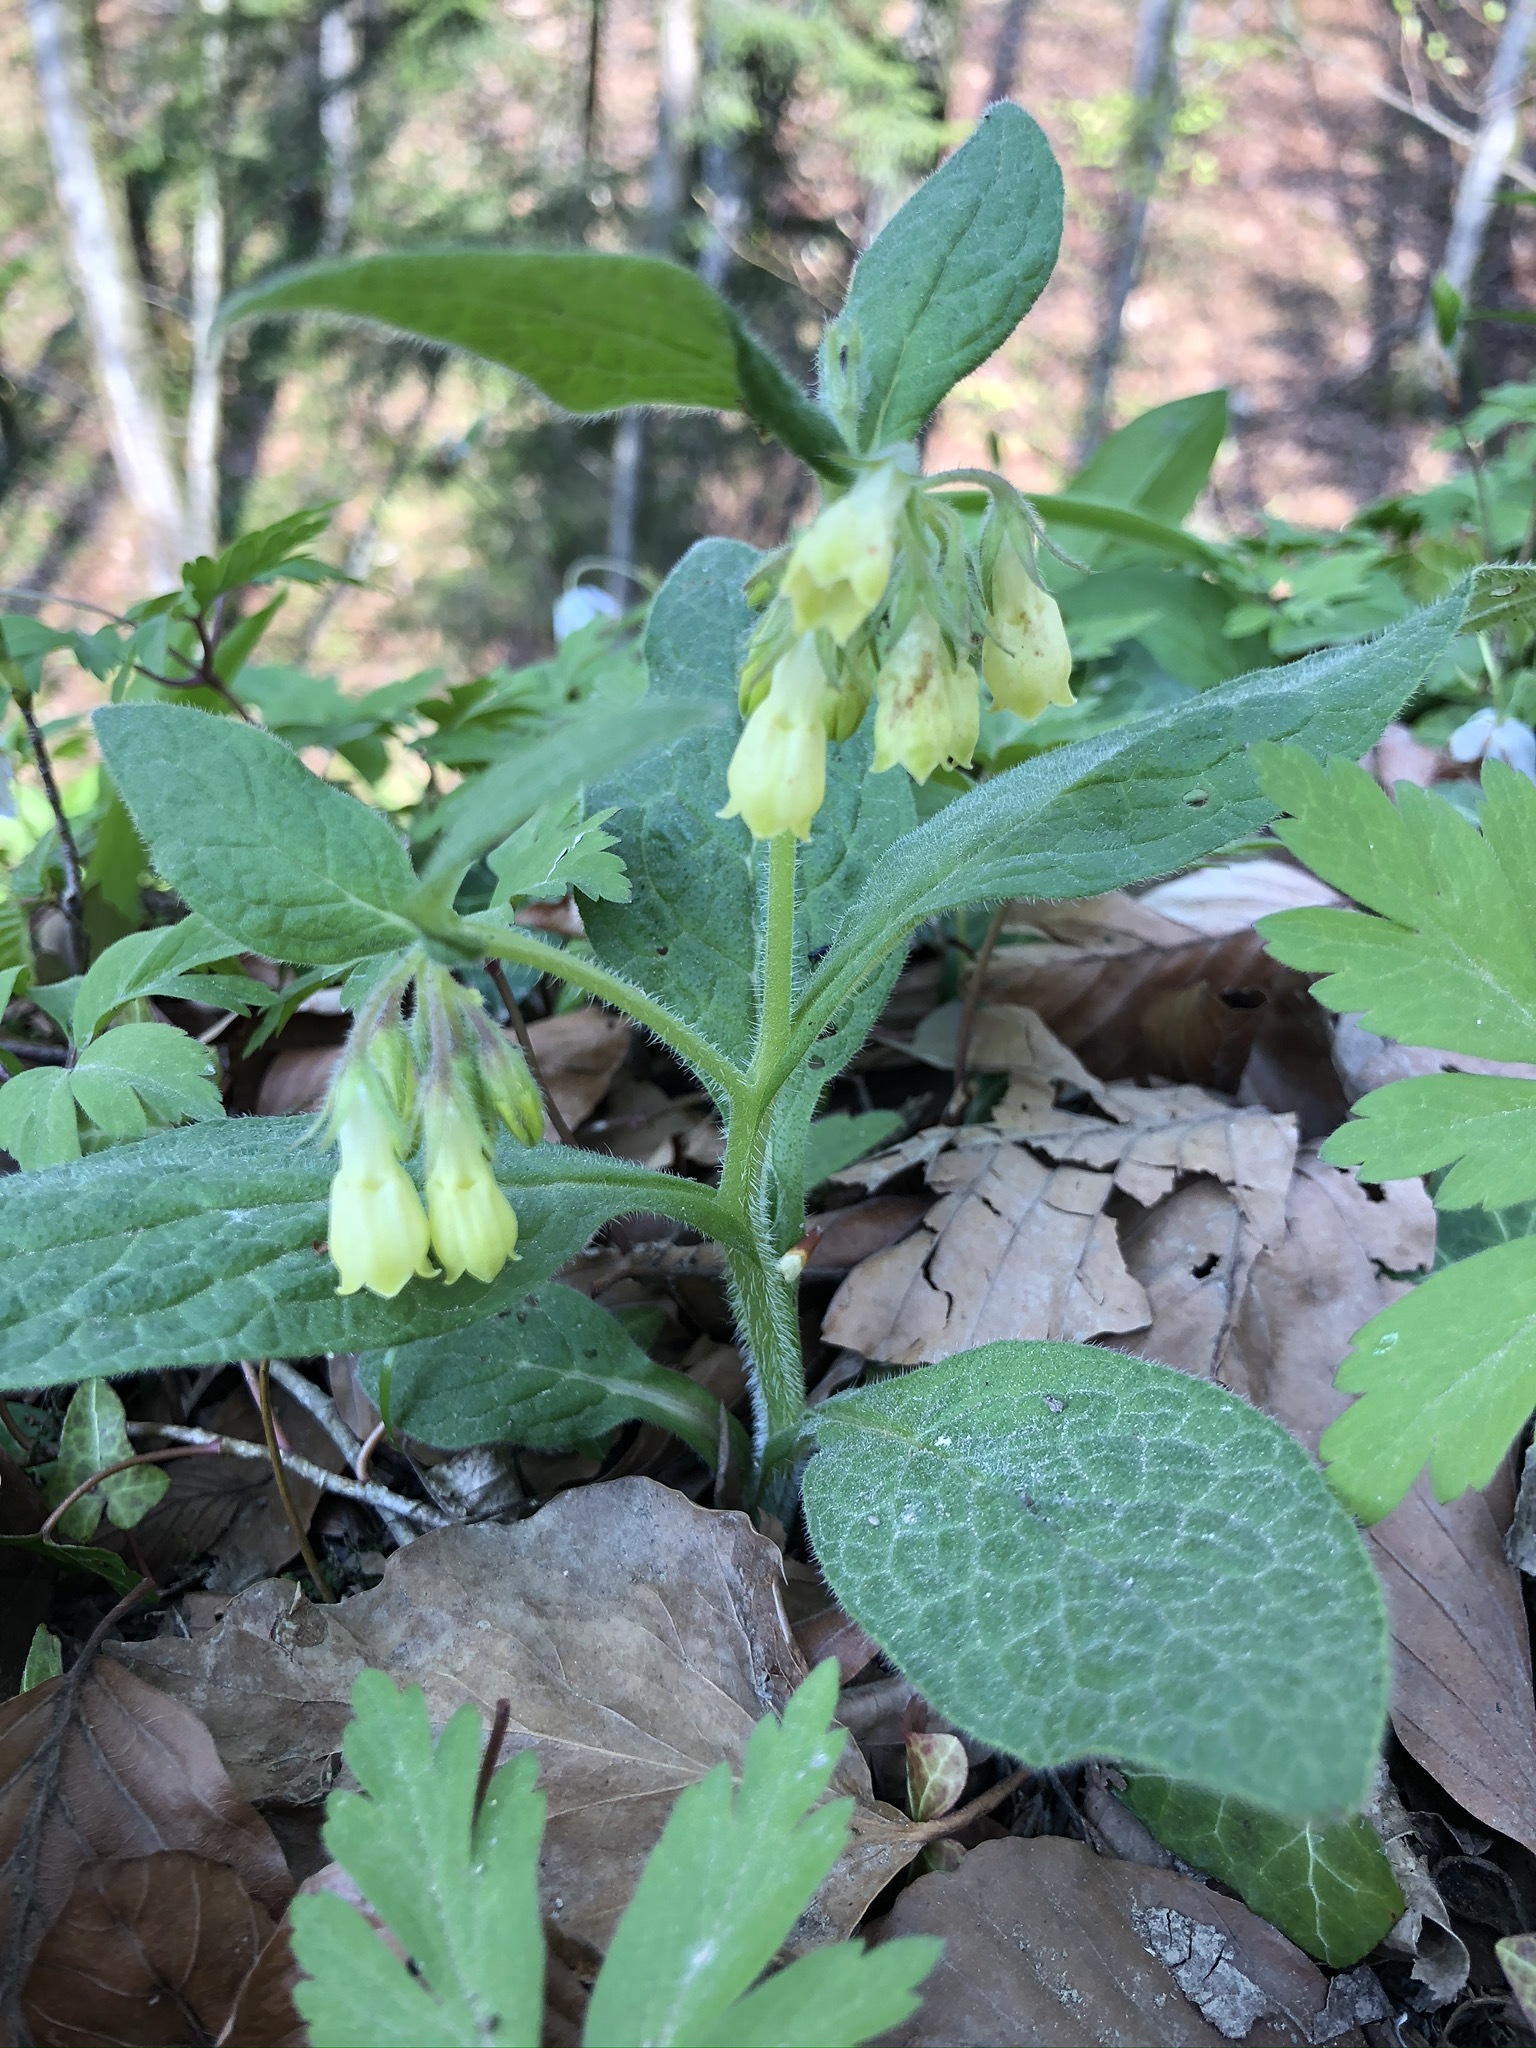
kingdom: Plantae
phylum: Tracheophyta
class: Magnoliopsida
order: Boraginales
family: Boraginaceae
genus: Symphytum
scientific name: Symphytum tuberosum
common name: Tuberous comfrey
